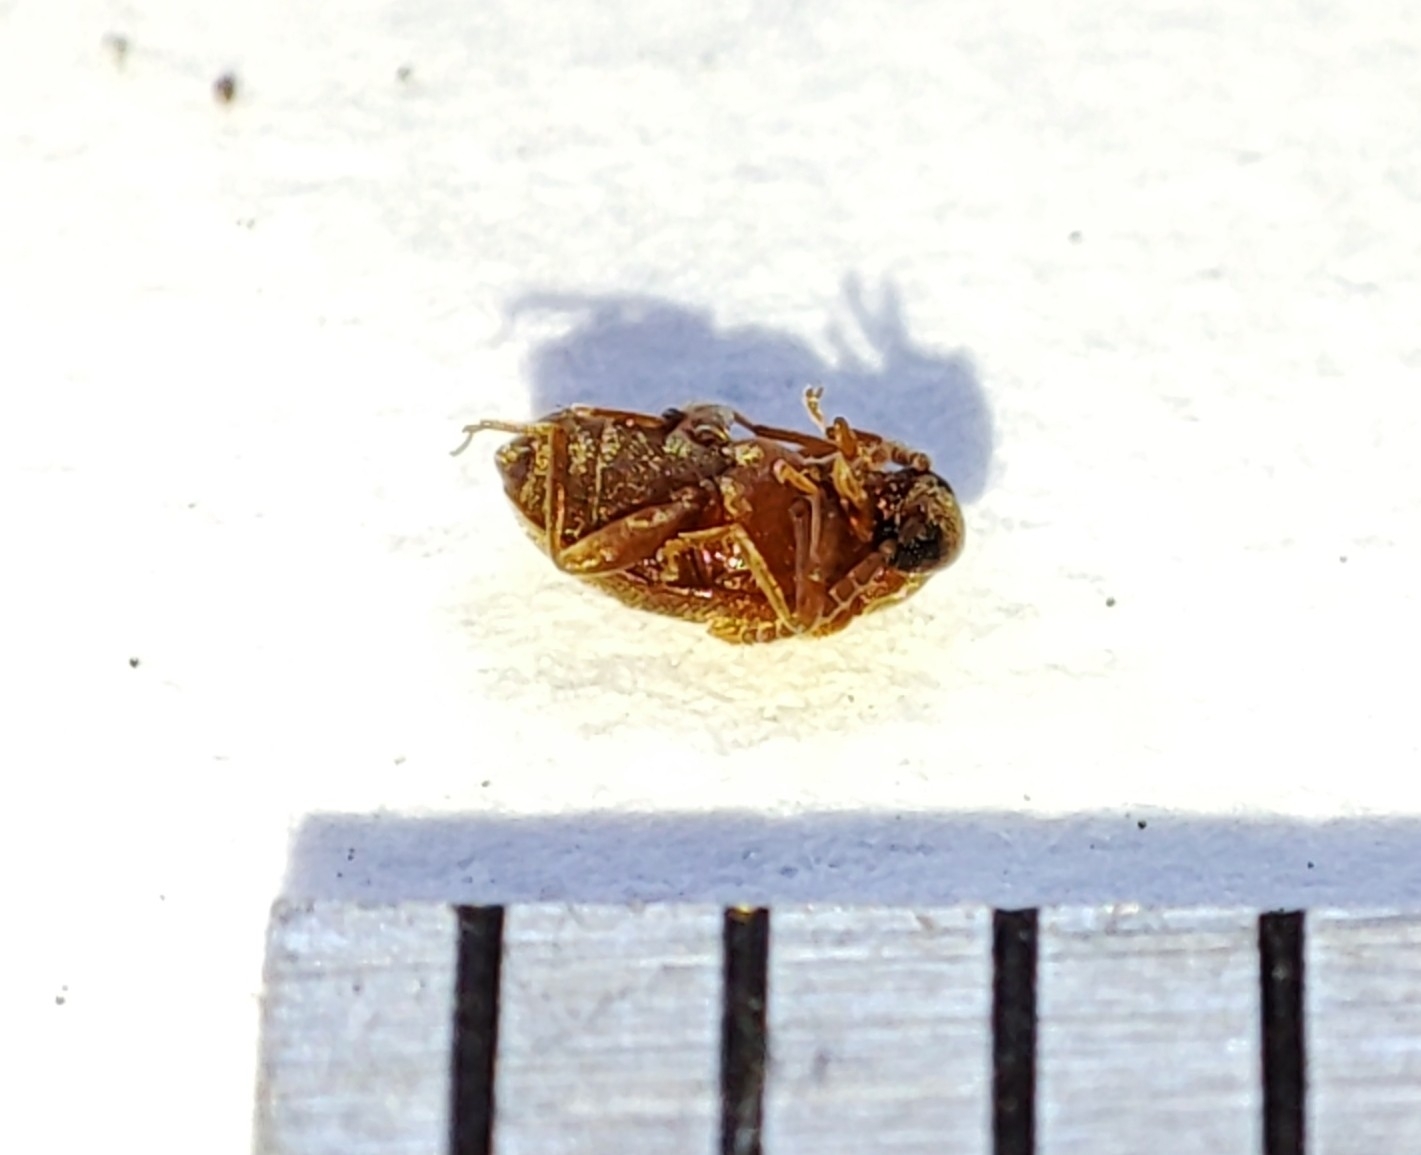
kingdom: Animalia
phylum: Arthropoda
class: Insecta
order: Coleoptera
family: Aderidae
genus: Aderus
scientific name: Aderus populneus
